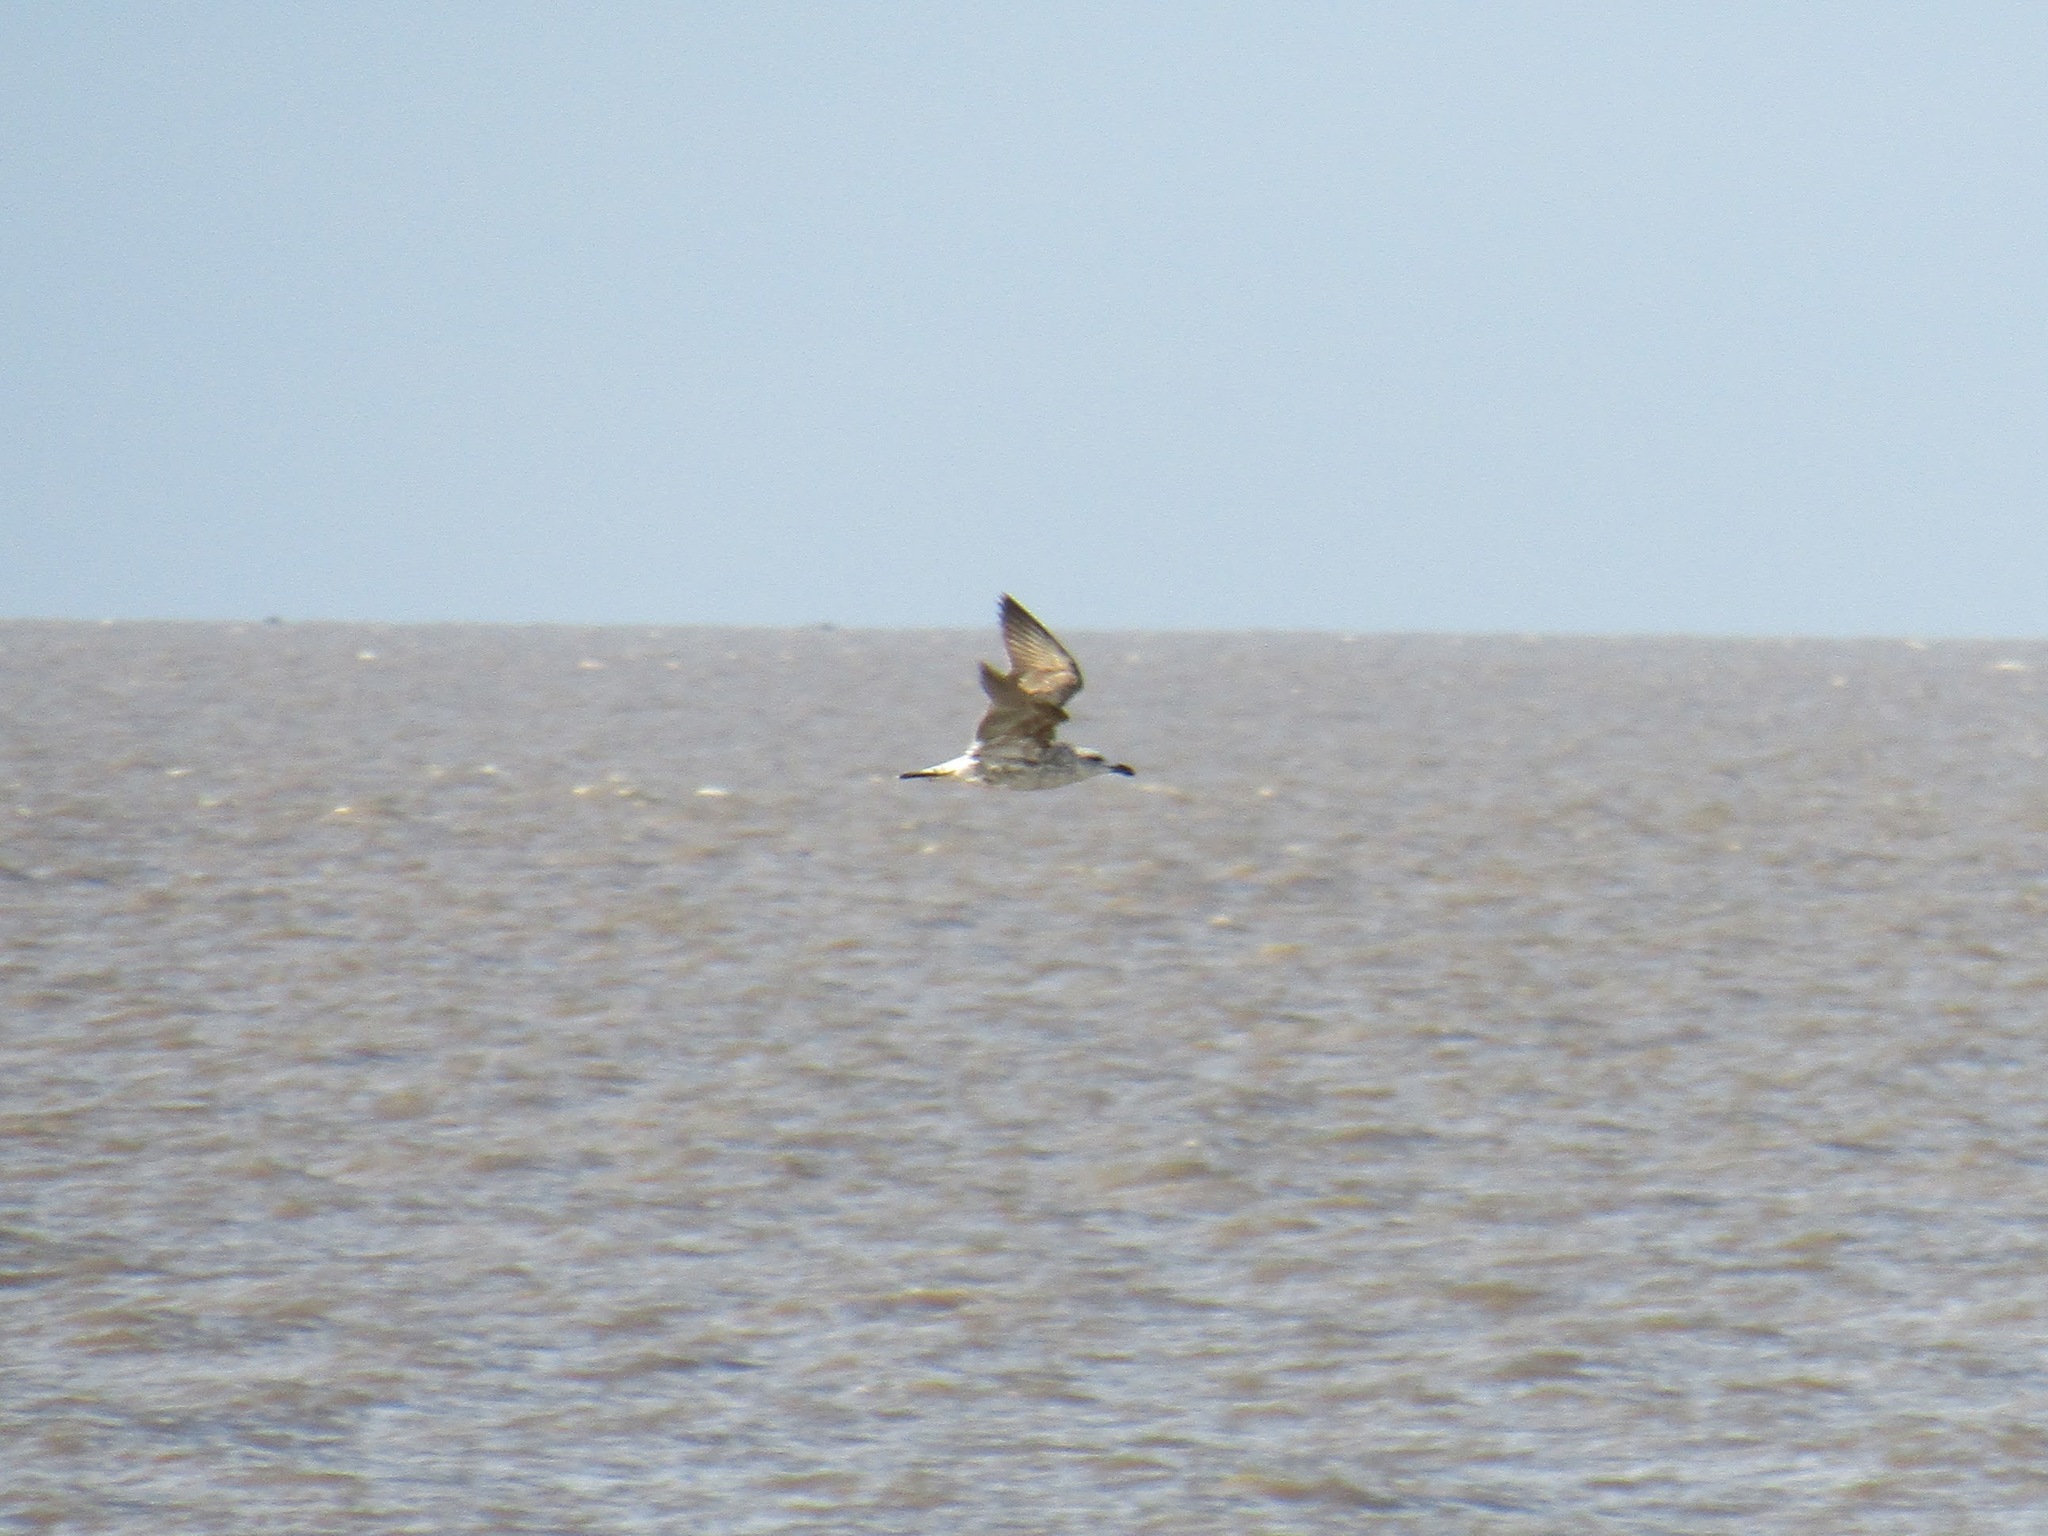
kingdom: Animalia
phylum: Chordata
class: Aves
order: Charadriiformes
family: Laridae
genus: Larus
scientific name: Larus dominicanus
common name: Kelp gull
